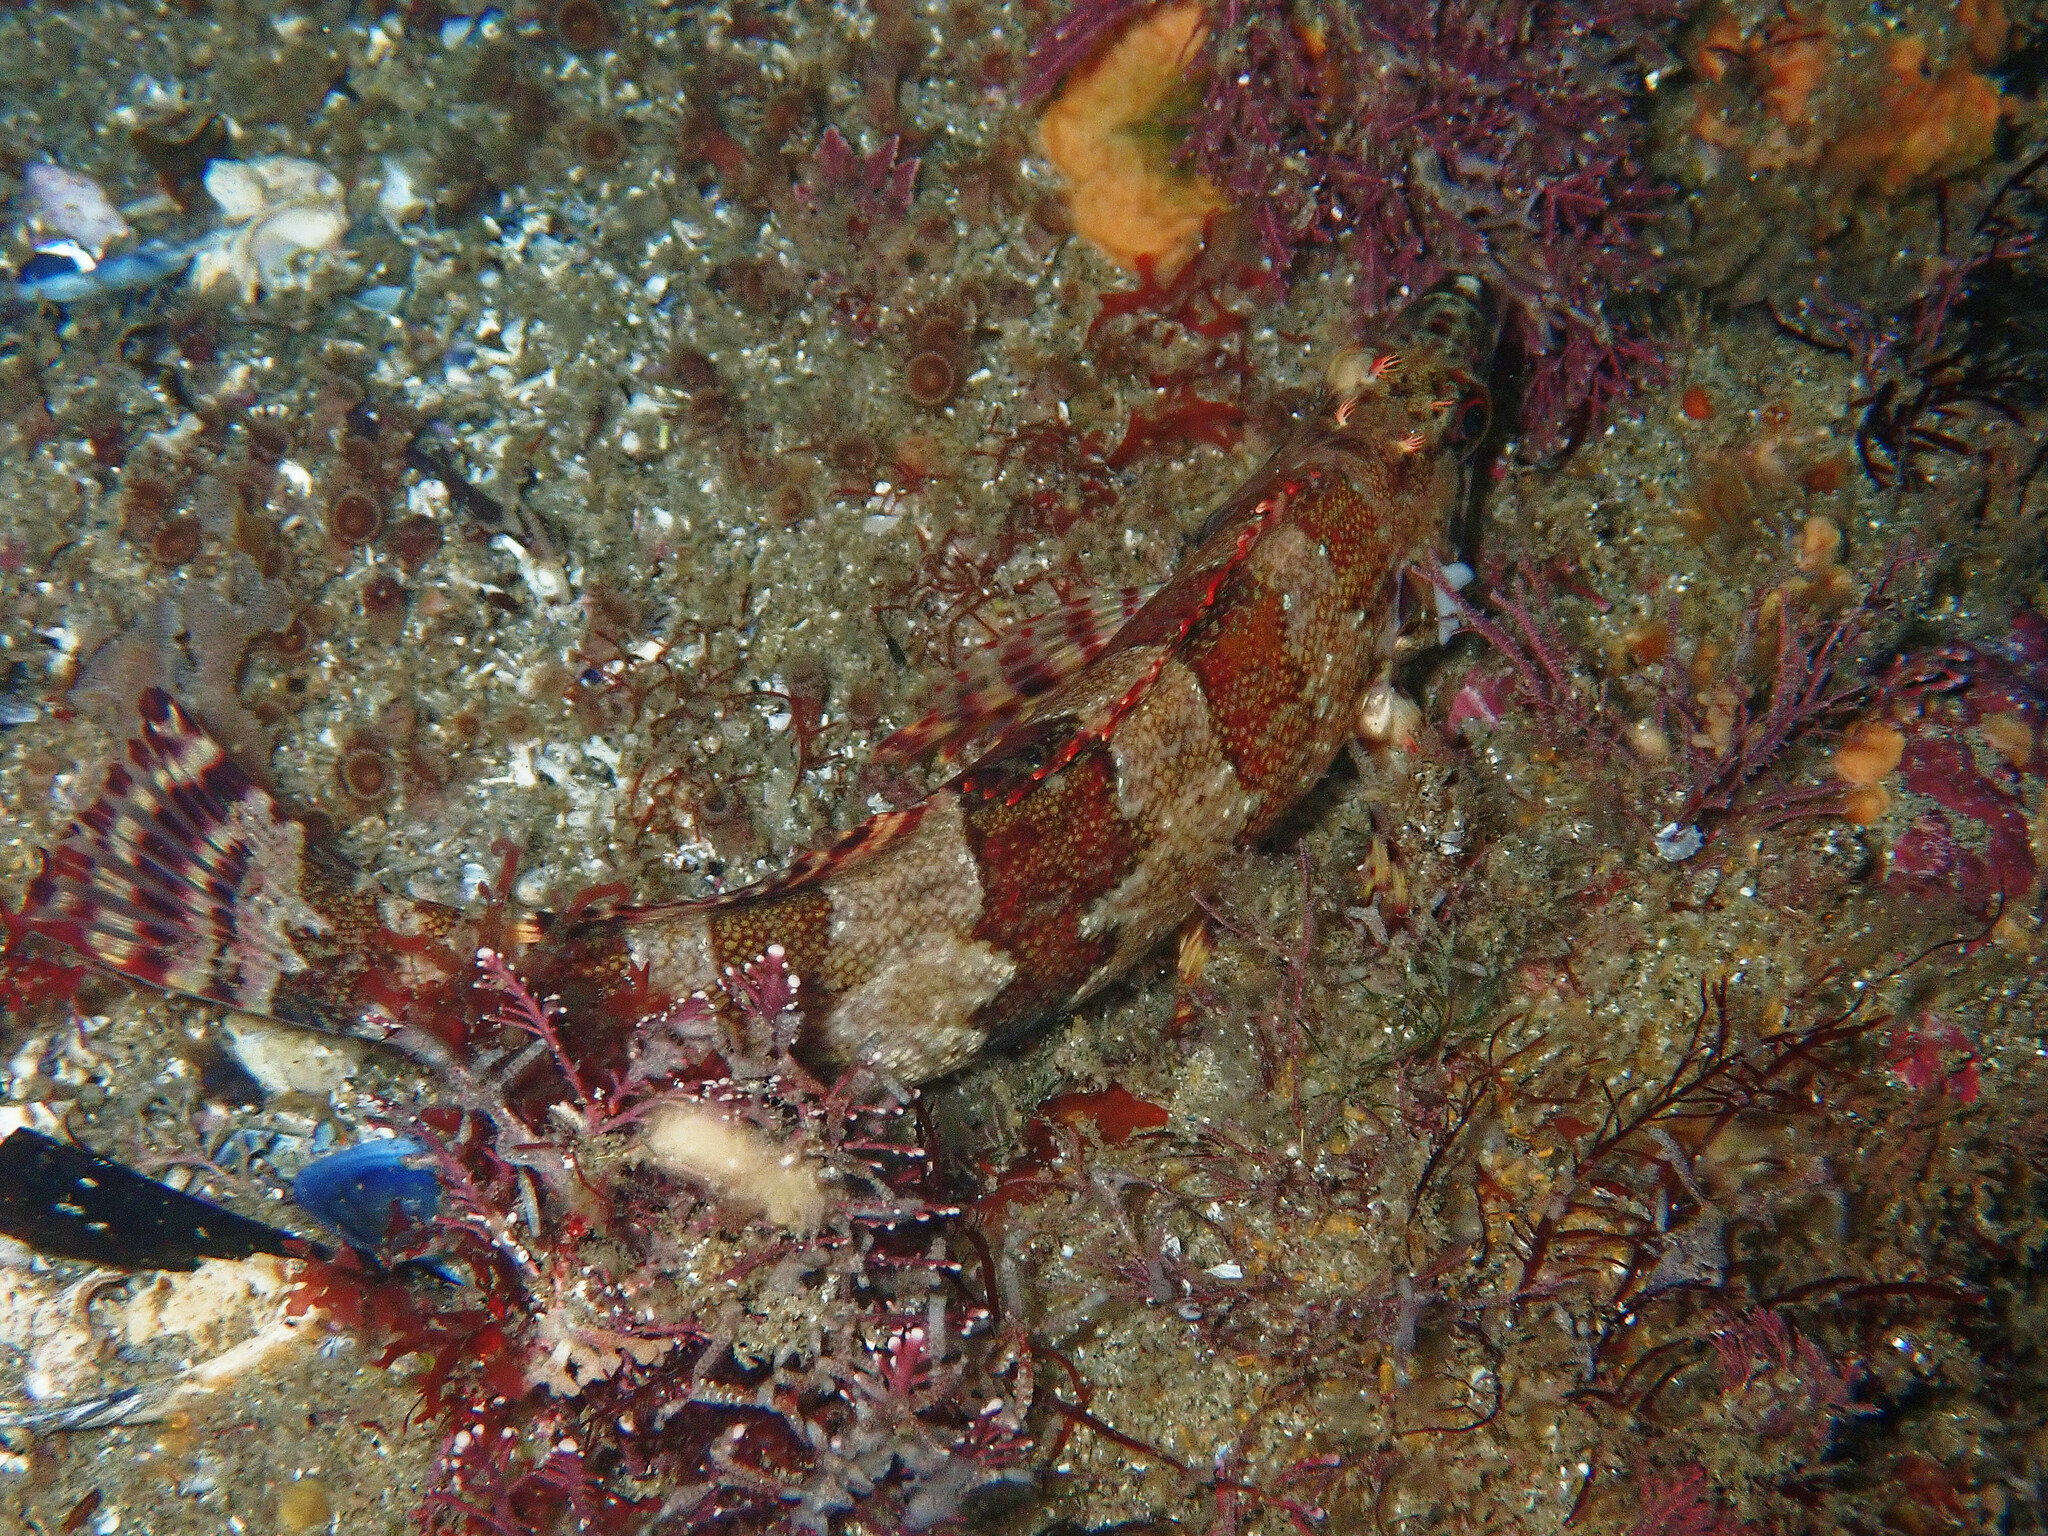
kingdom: Animalia
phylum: Chordata
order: Scorpaeniformes
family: Hexagrammidae
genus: Oxylebius
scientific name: Oxylebius pictus
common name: Painted greenling
